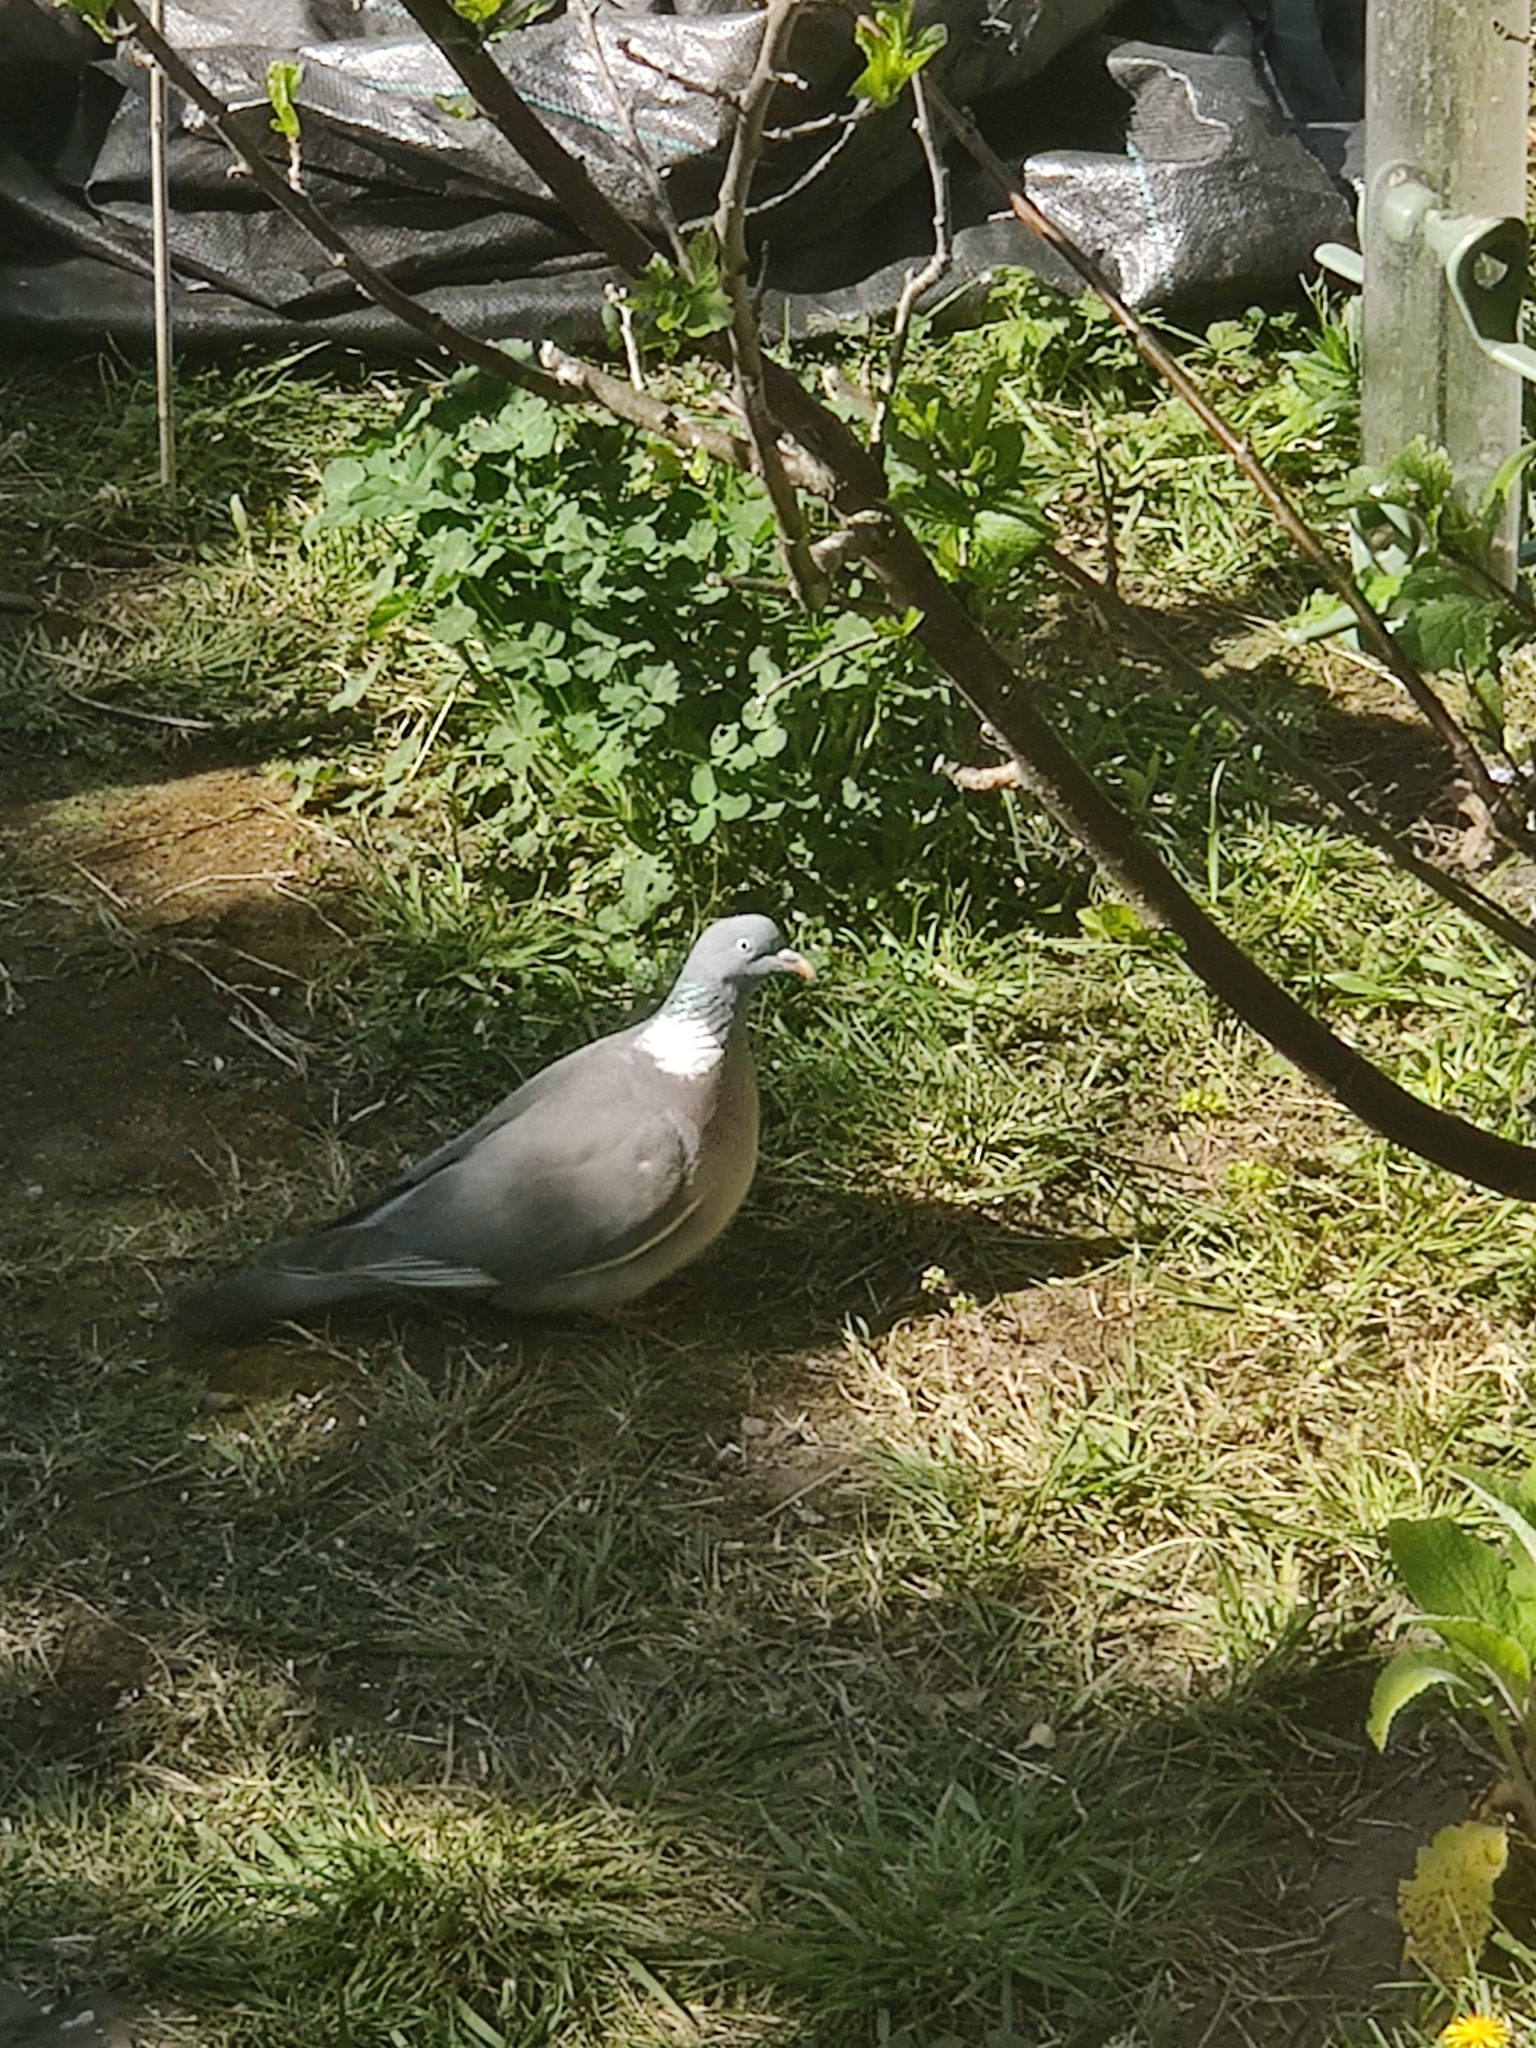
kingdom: Animalia
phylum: Chordata
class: Aves
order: Columbiformes
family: Columbidae
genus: Columba
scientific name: Columba palumbus
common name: Common wood pigeon
